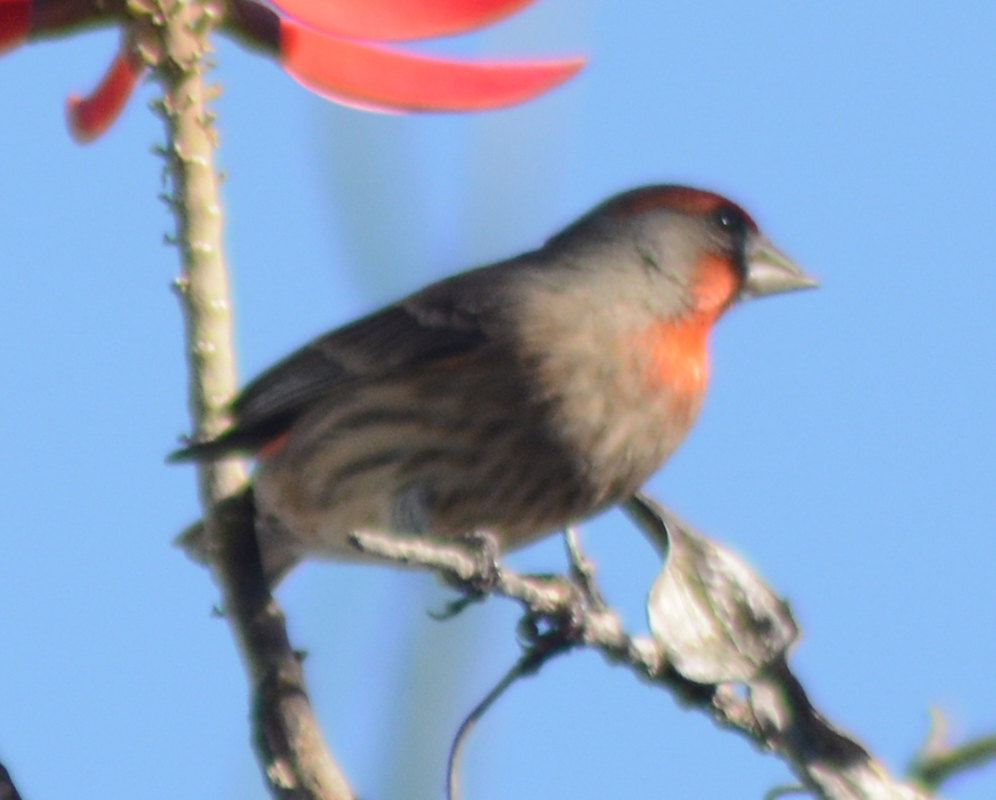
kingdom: Animalia
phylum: Chordata
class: Aves
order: Passeriformes
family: Fringillidae
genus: Haemorhous
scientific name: Haemorhous mexicanus
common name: House finch
